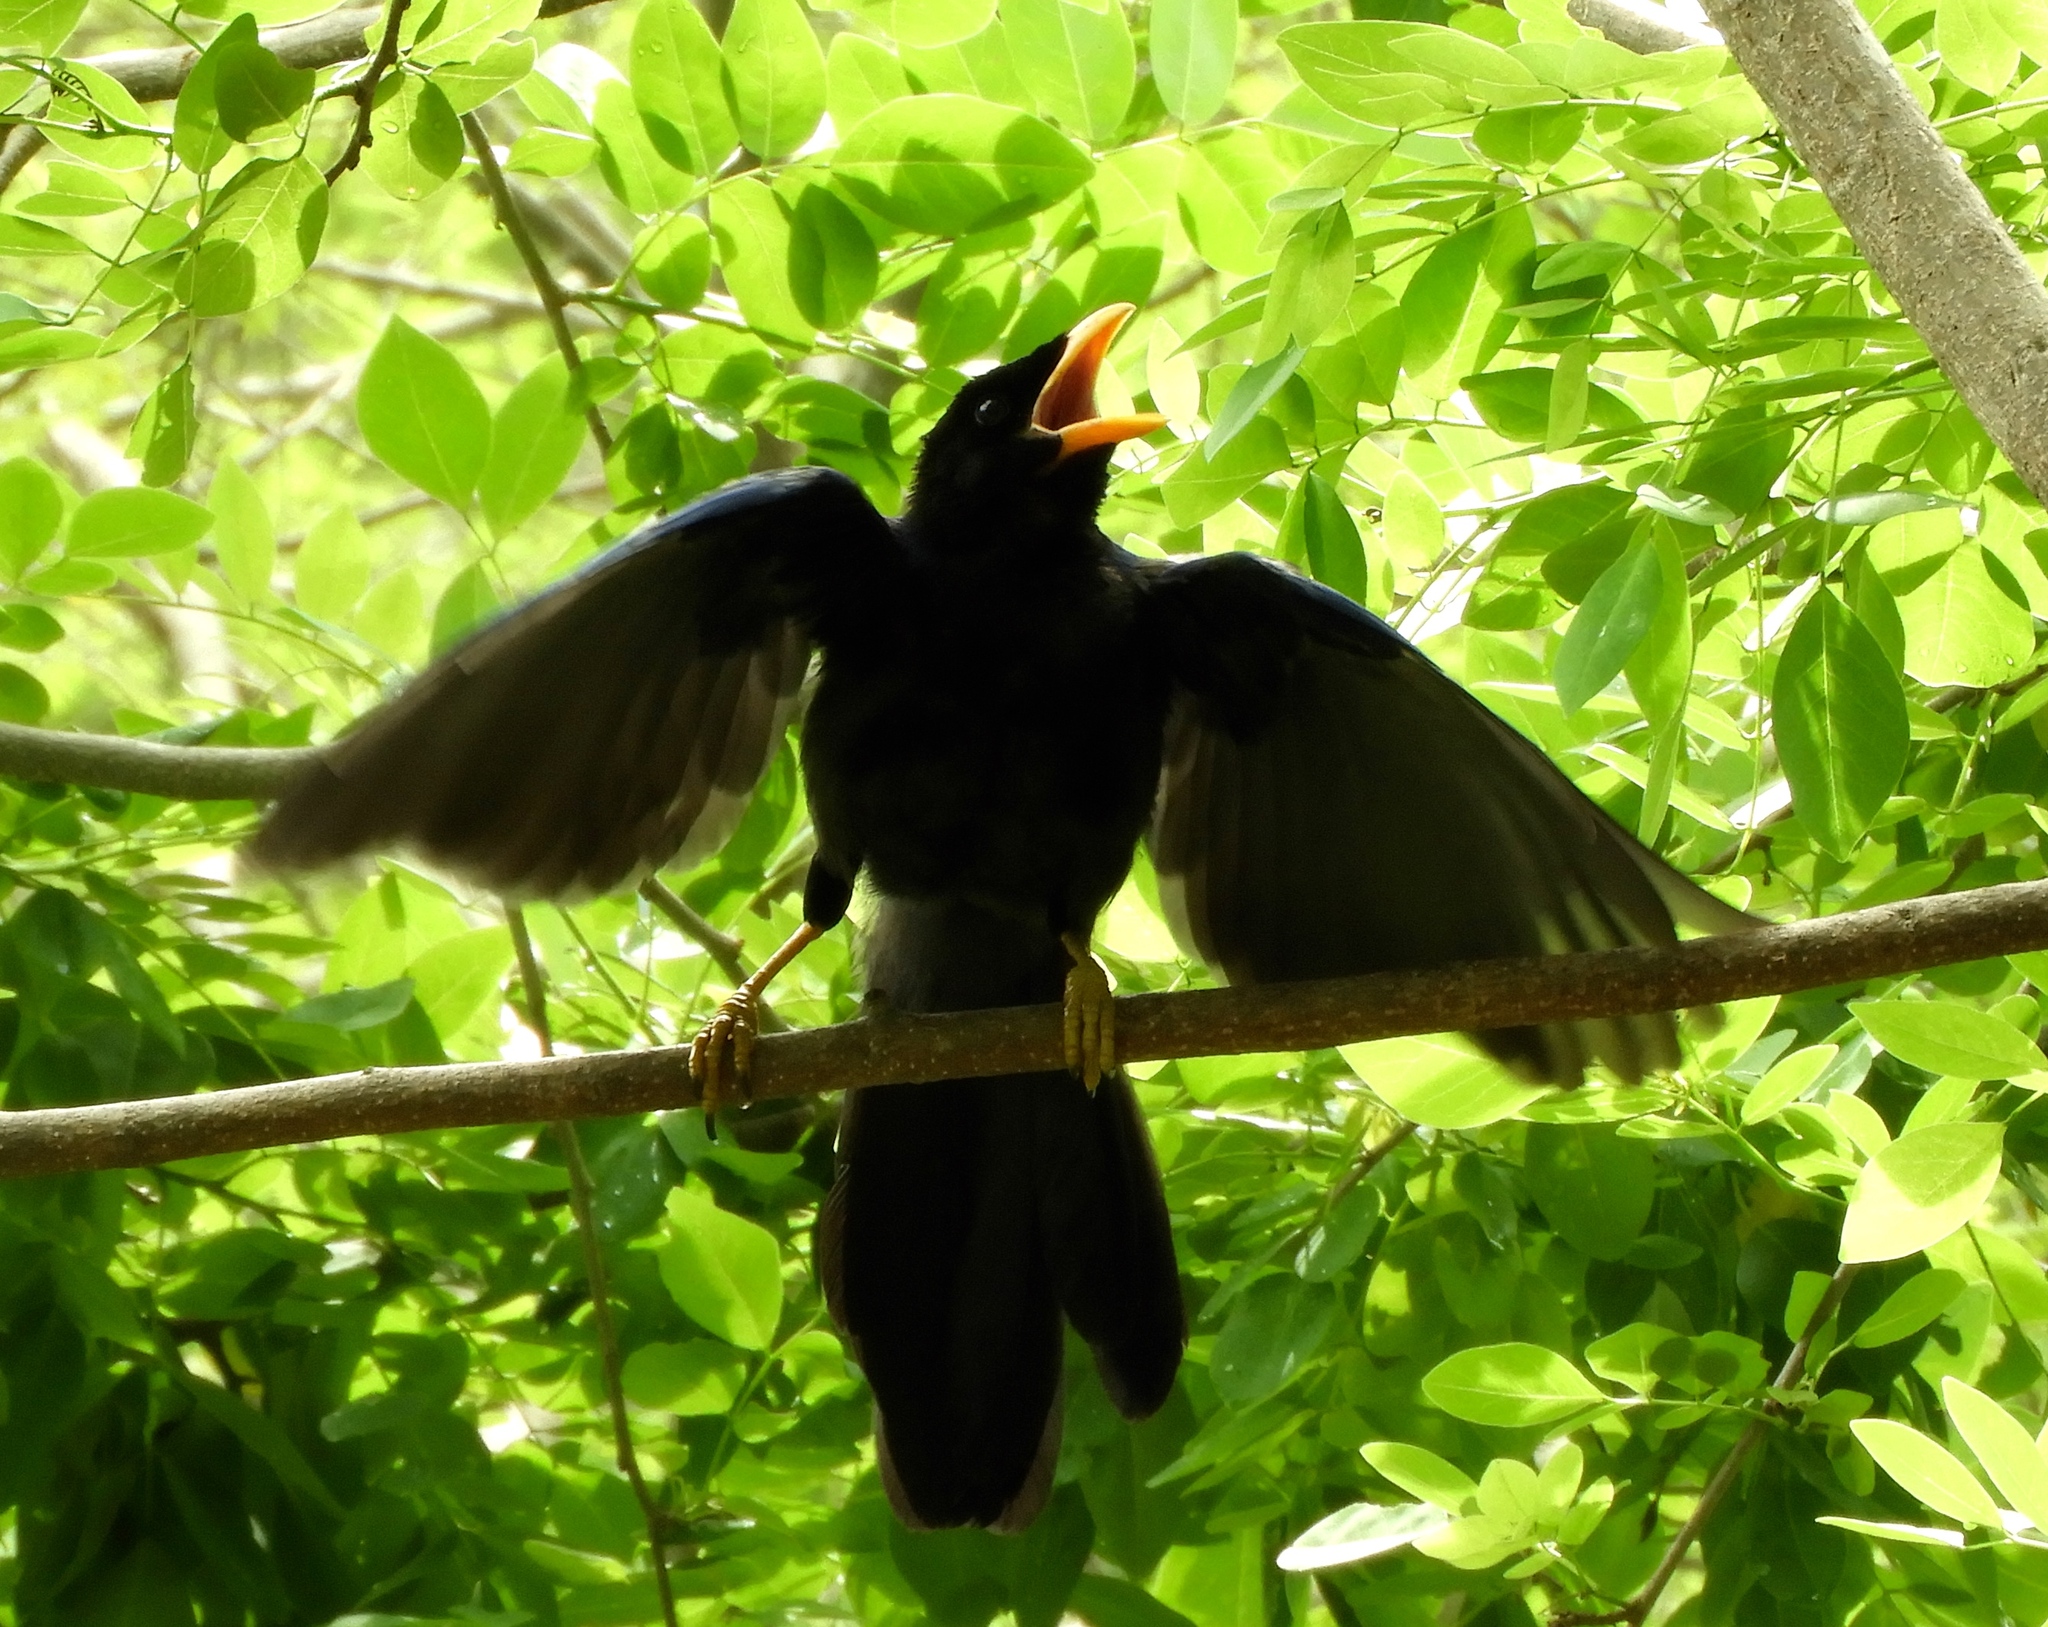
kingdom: Animalia
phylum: Chordata
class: Aves
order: Passeriformes
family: Corvidae
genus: Cyanocorax
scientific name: Cyanocorax beecheii
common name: Purplish-backed jay
